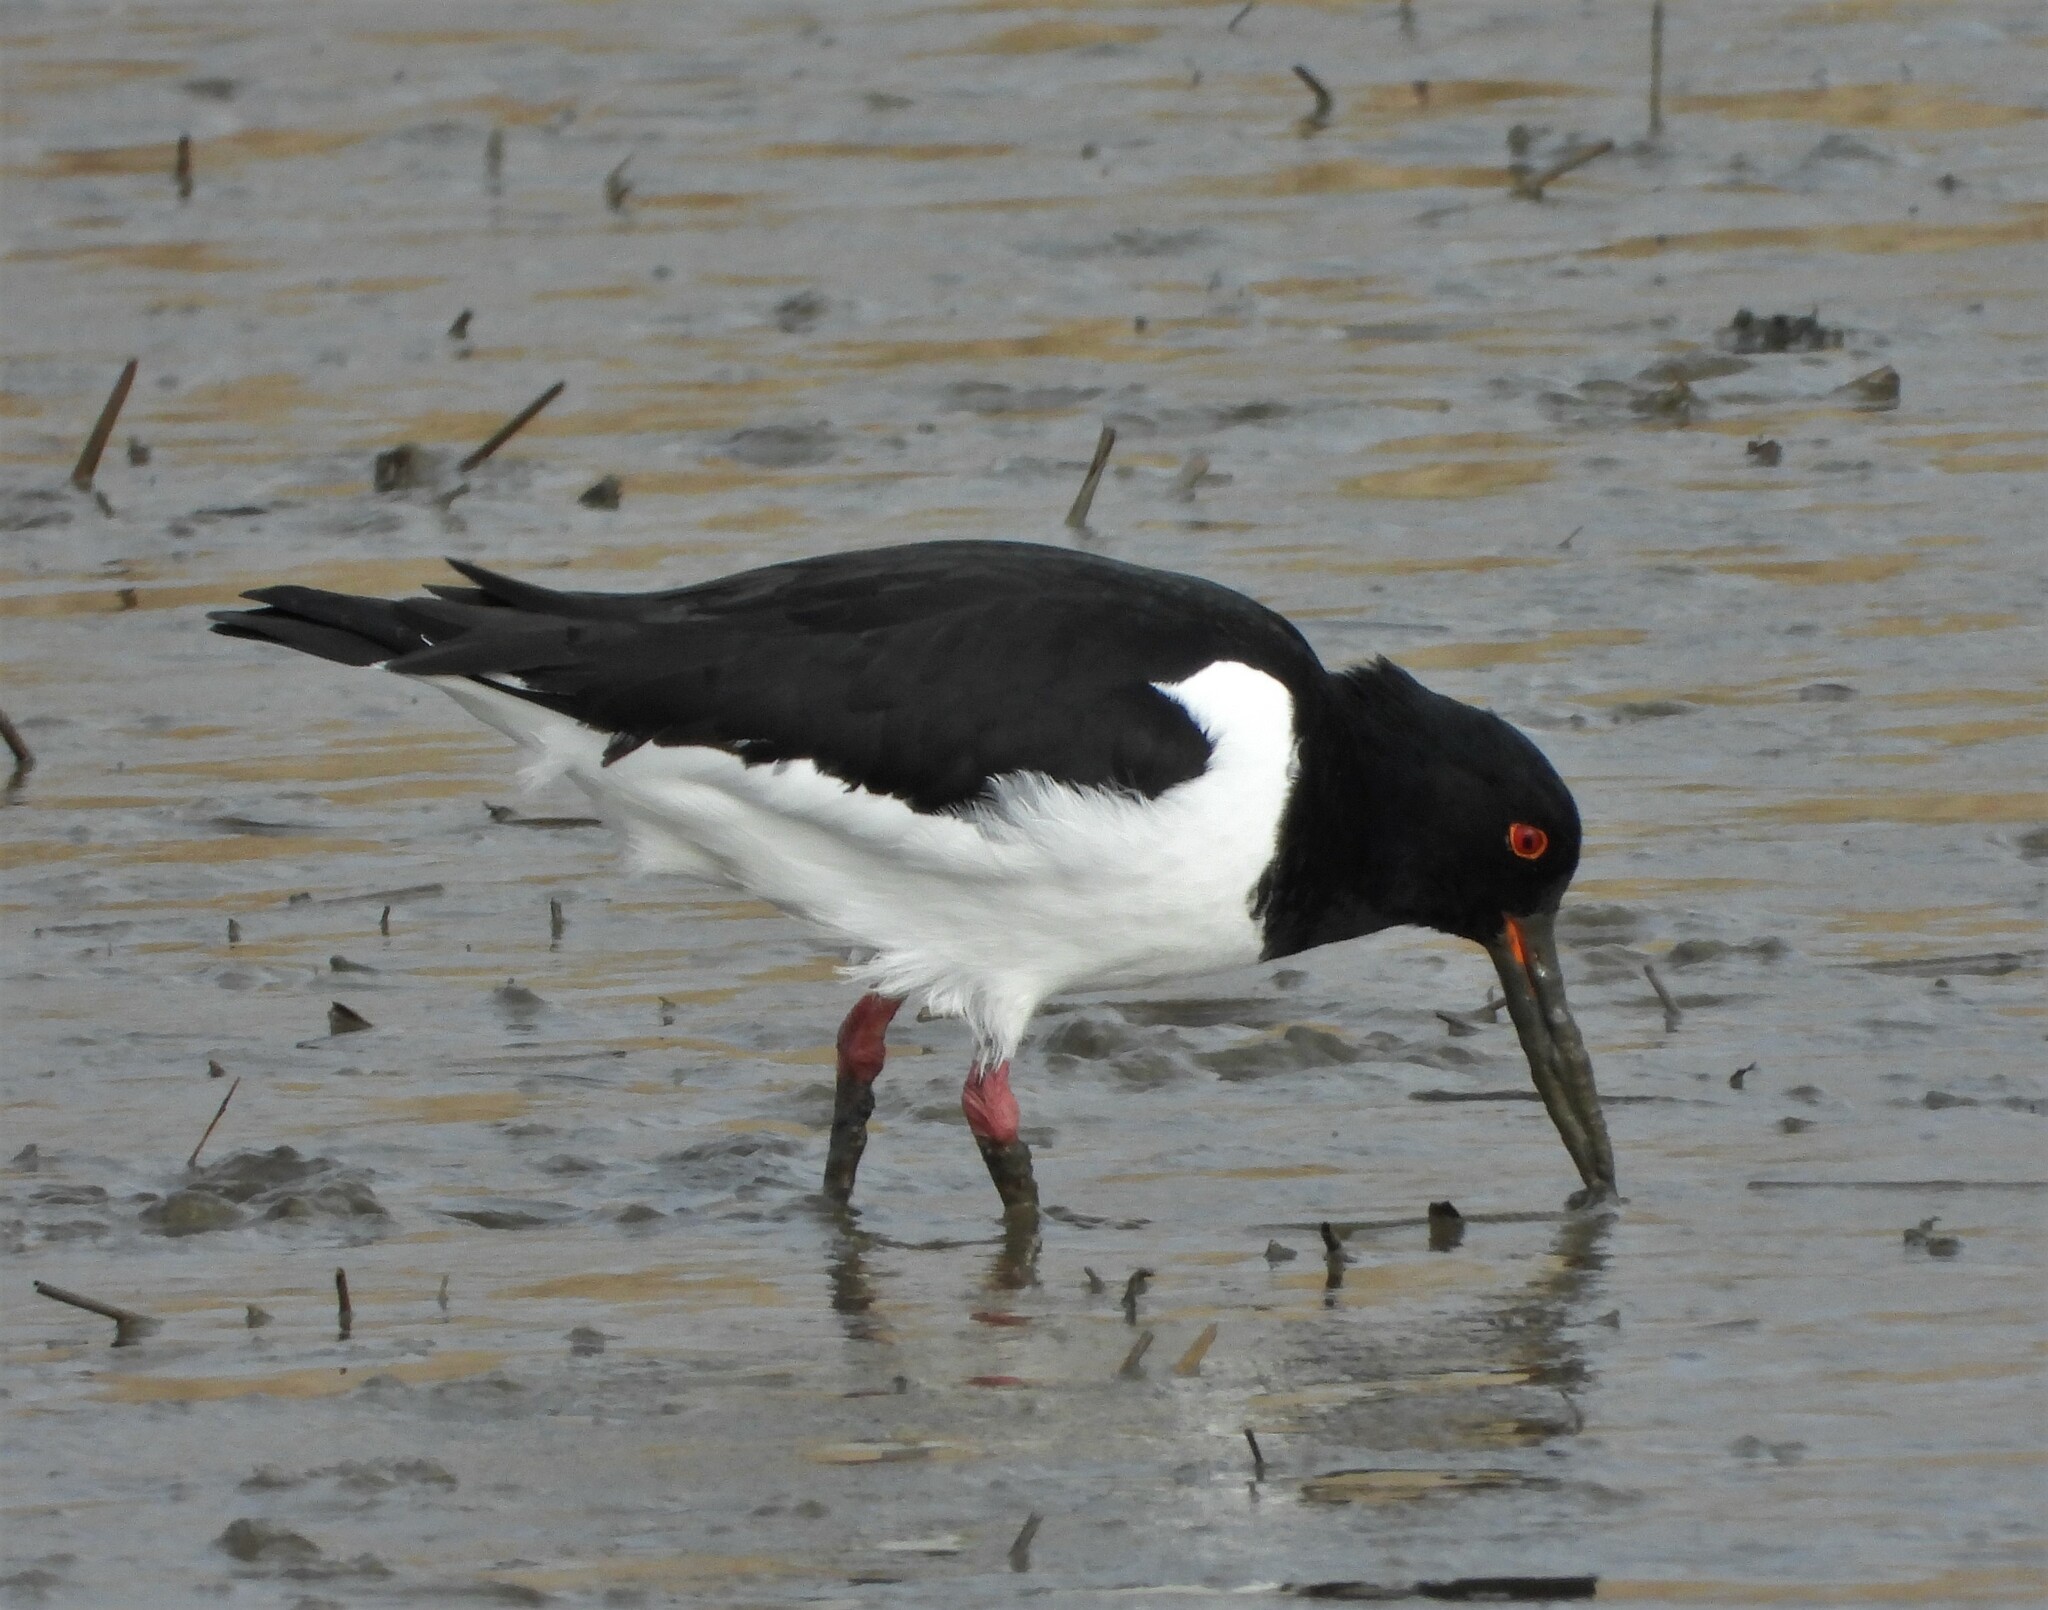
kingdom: Animalia
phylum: Chordata
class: Aves
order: Charadriiformes
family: Haematopodidae
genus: Haematopus
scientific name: Haematopus ostralegus
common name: Eurasian oystercatcher
